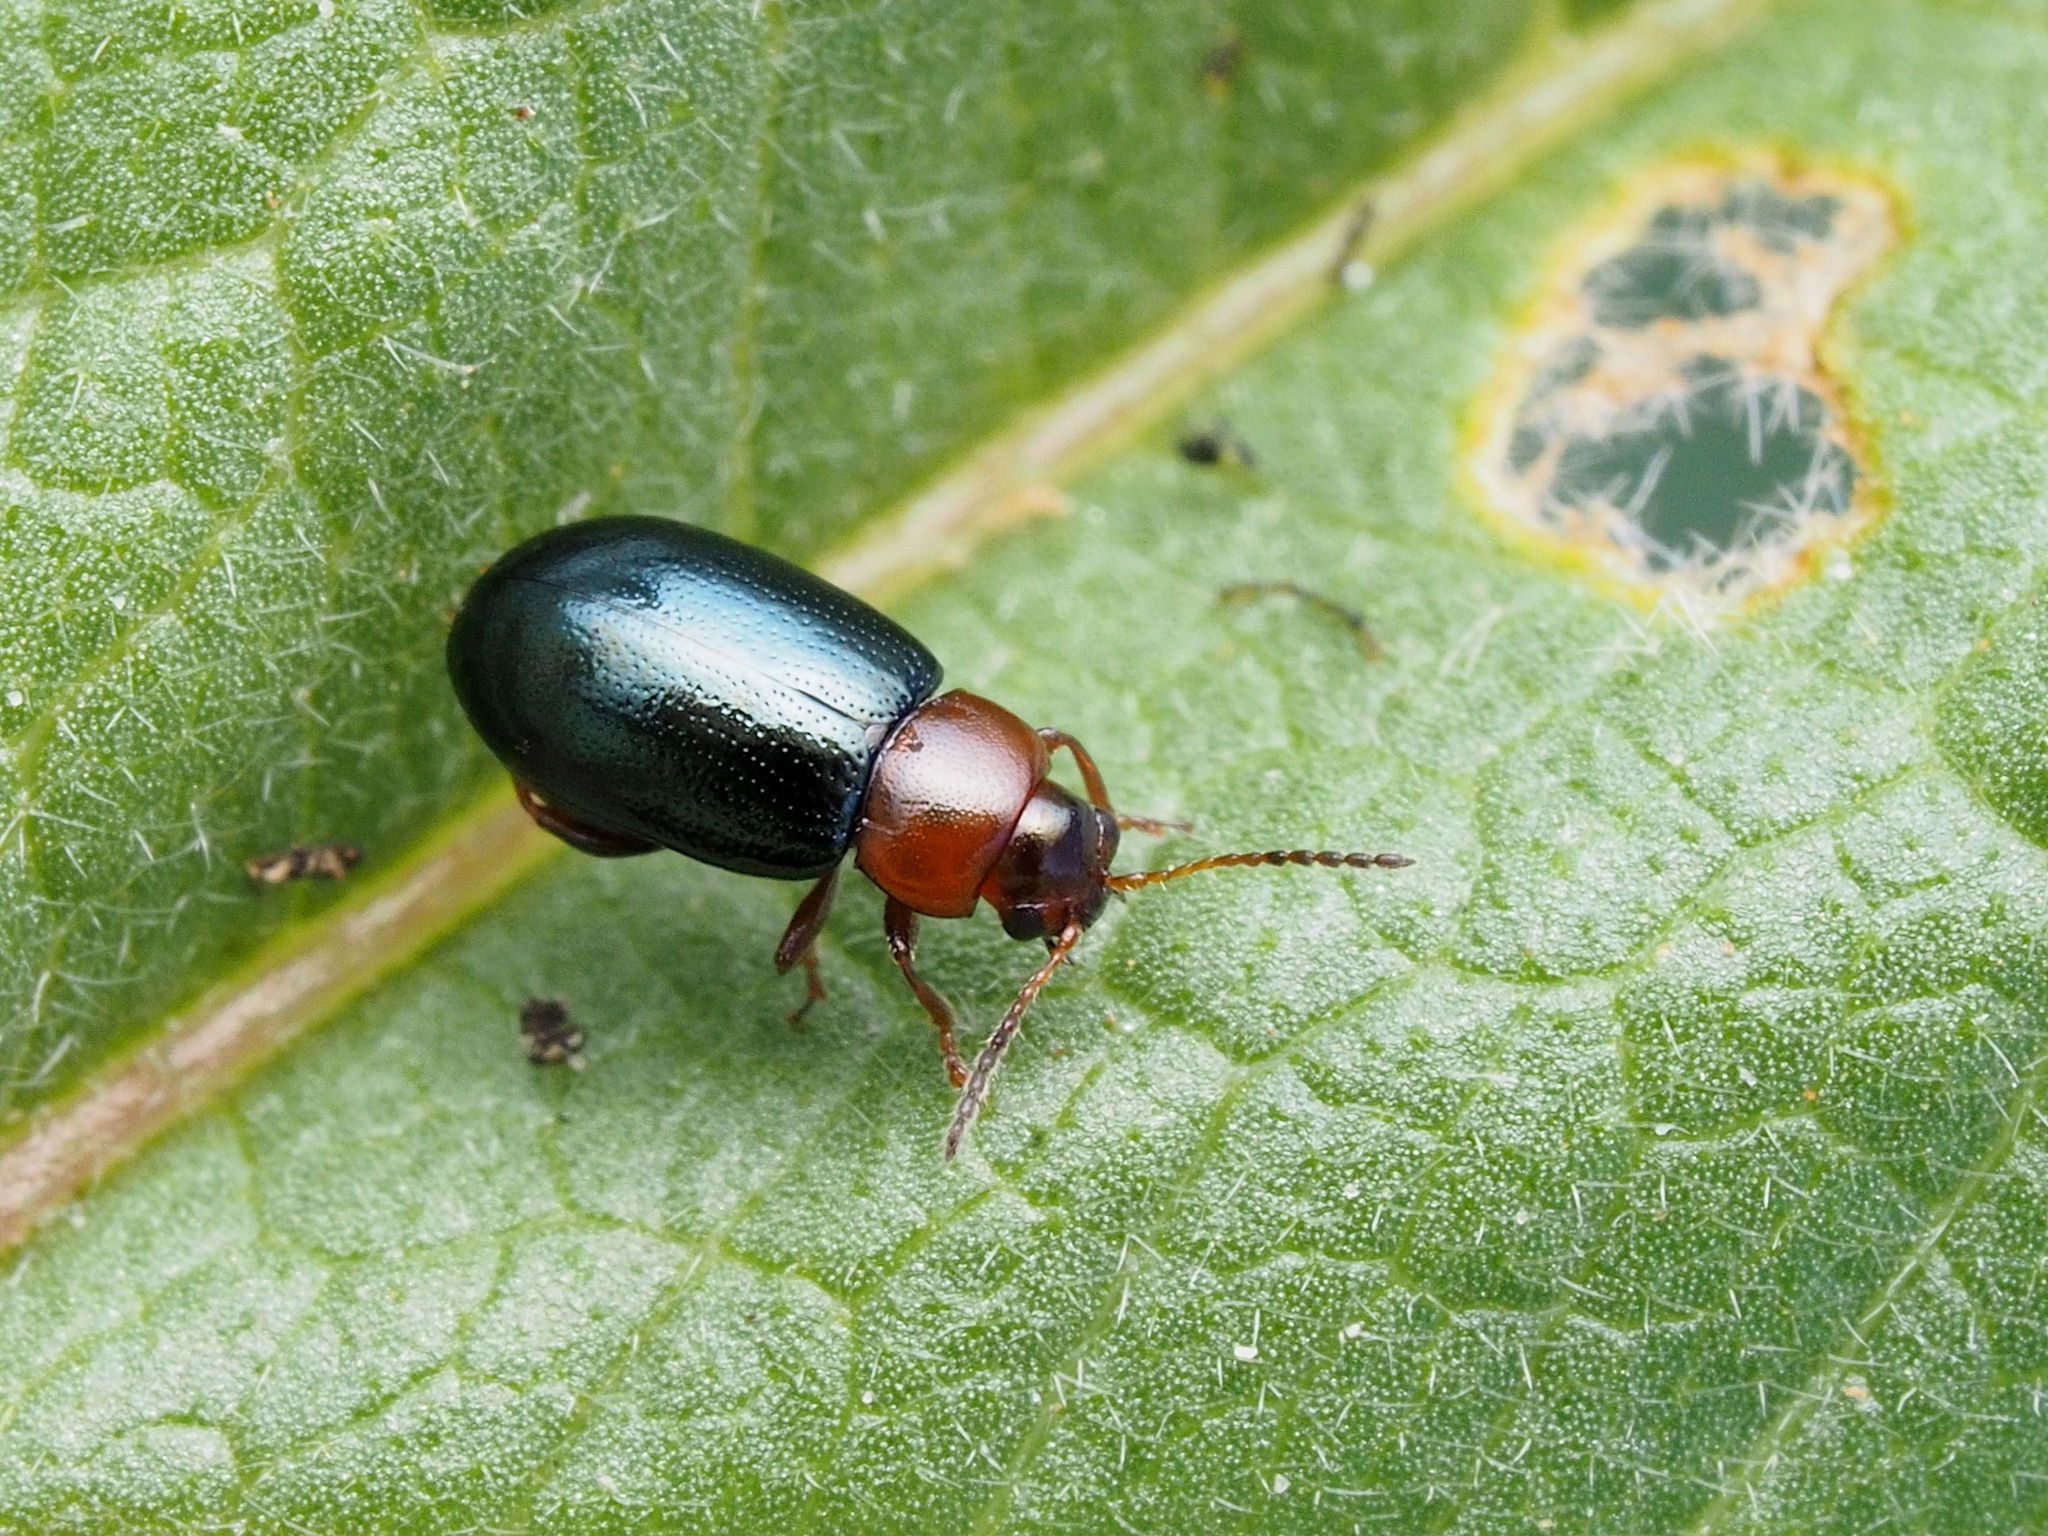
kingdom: Animalia
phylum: Arthropoda
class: Insecta
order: Coleoptera
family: Chrysomelidae
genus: Podagrica
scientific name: Podagrica malvae
